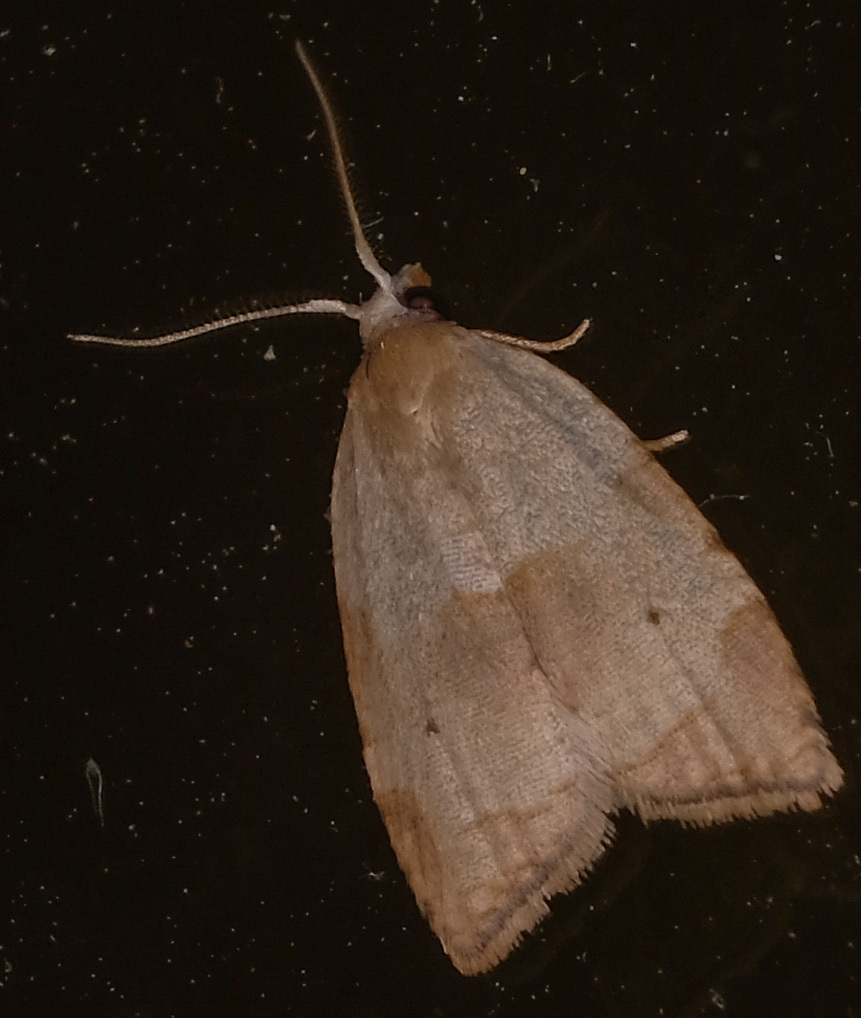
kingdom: Animalia
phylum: Arthropoda
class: Insecta
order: Lepidoptera
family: Tortricidae
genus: Coelostathma
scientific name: Coelostathma discopunctana
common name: Batman moth
